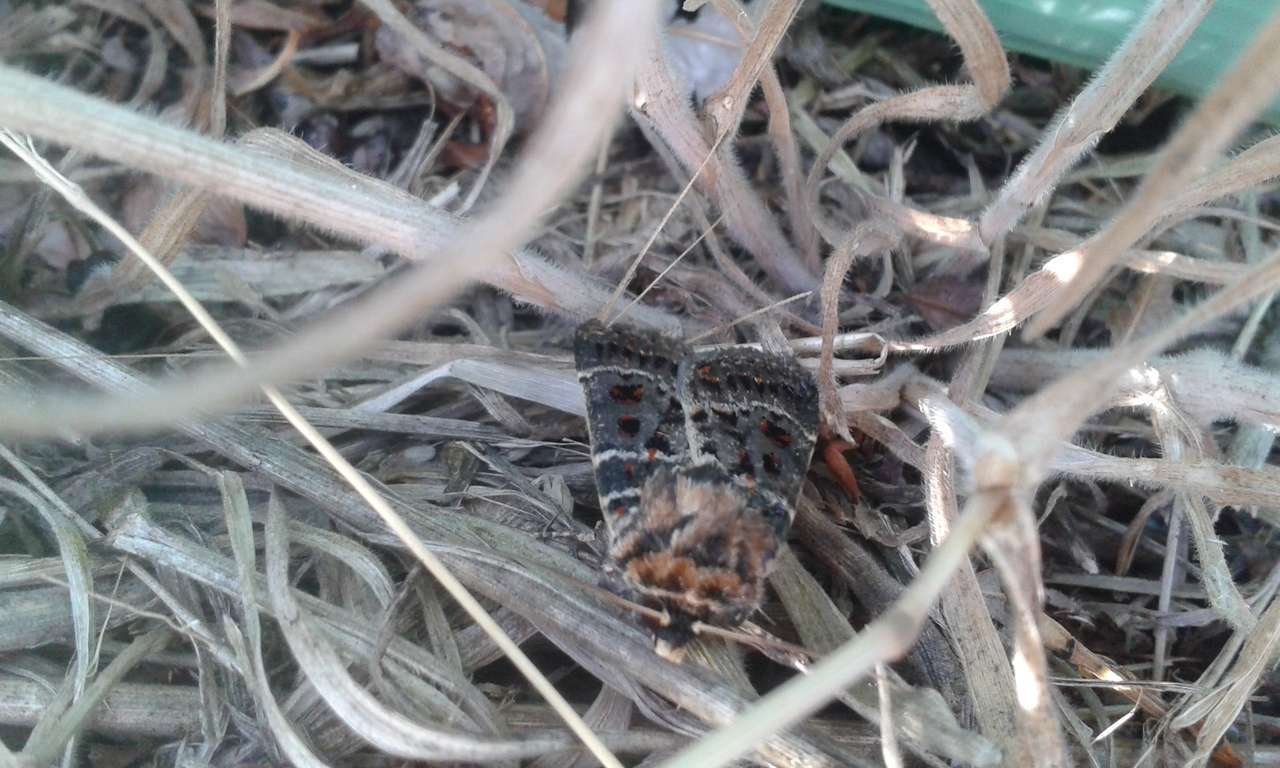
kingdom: Animalia
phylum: Arthropoda
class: Insecta
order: Lepidoptera
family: Noctuidae
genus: Proteuxoa
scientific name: Proteuxoa sanguinipuncta
